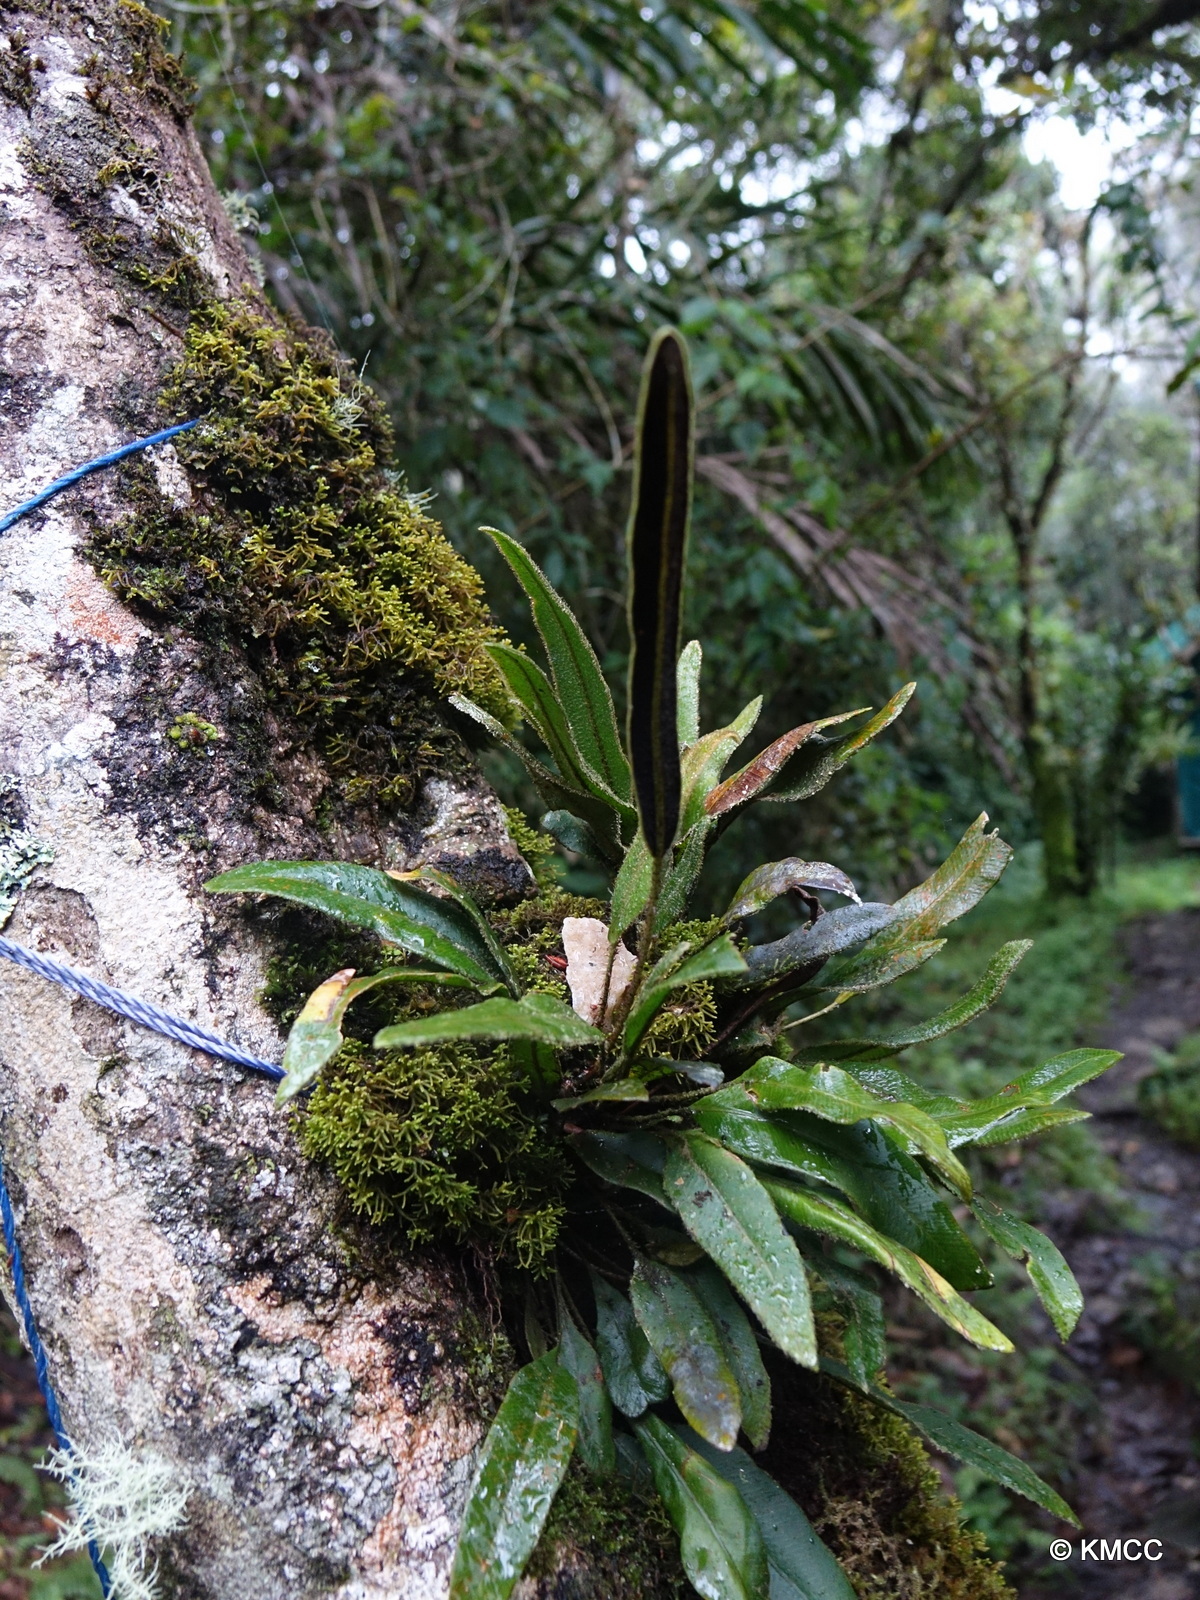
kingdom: Plantae
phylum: Tracheophyta
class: Polypodiopsida
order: Polypodiales
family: Dryopteridaceae
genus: Elaphoglossum
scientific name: Elaphoglossum deckenii
